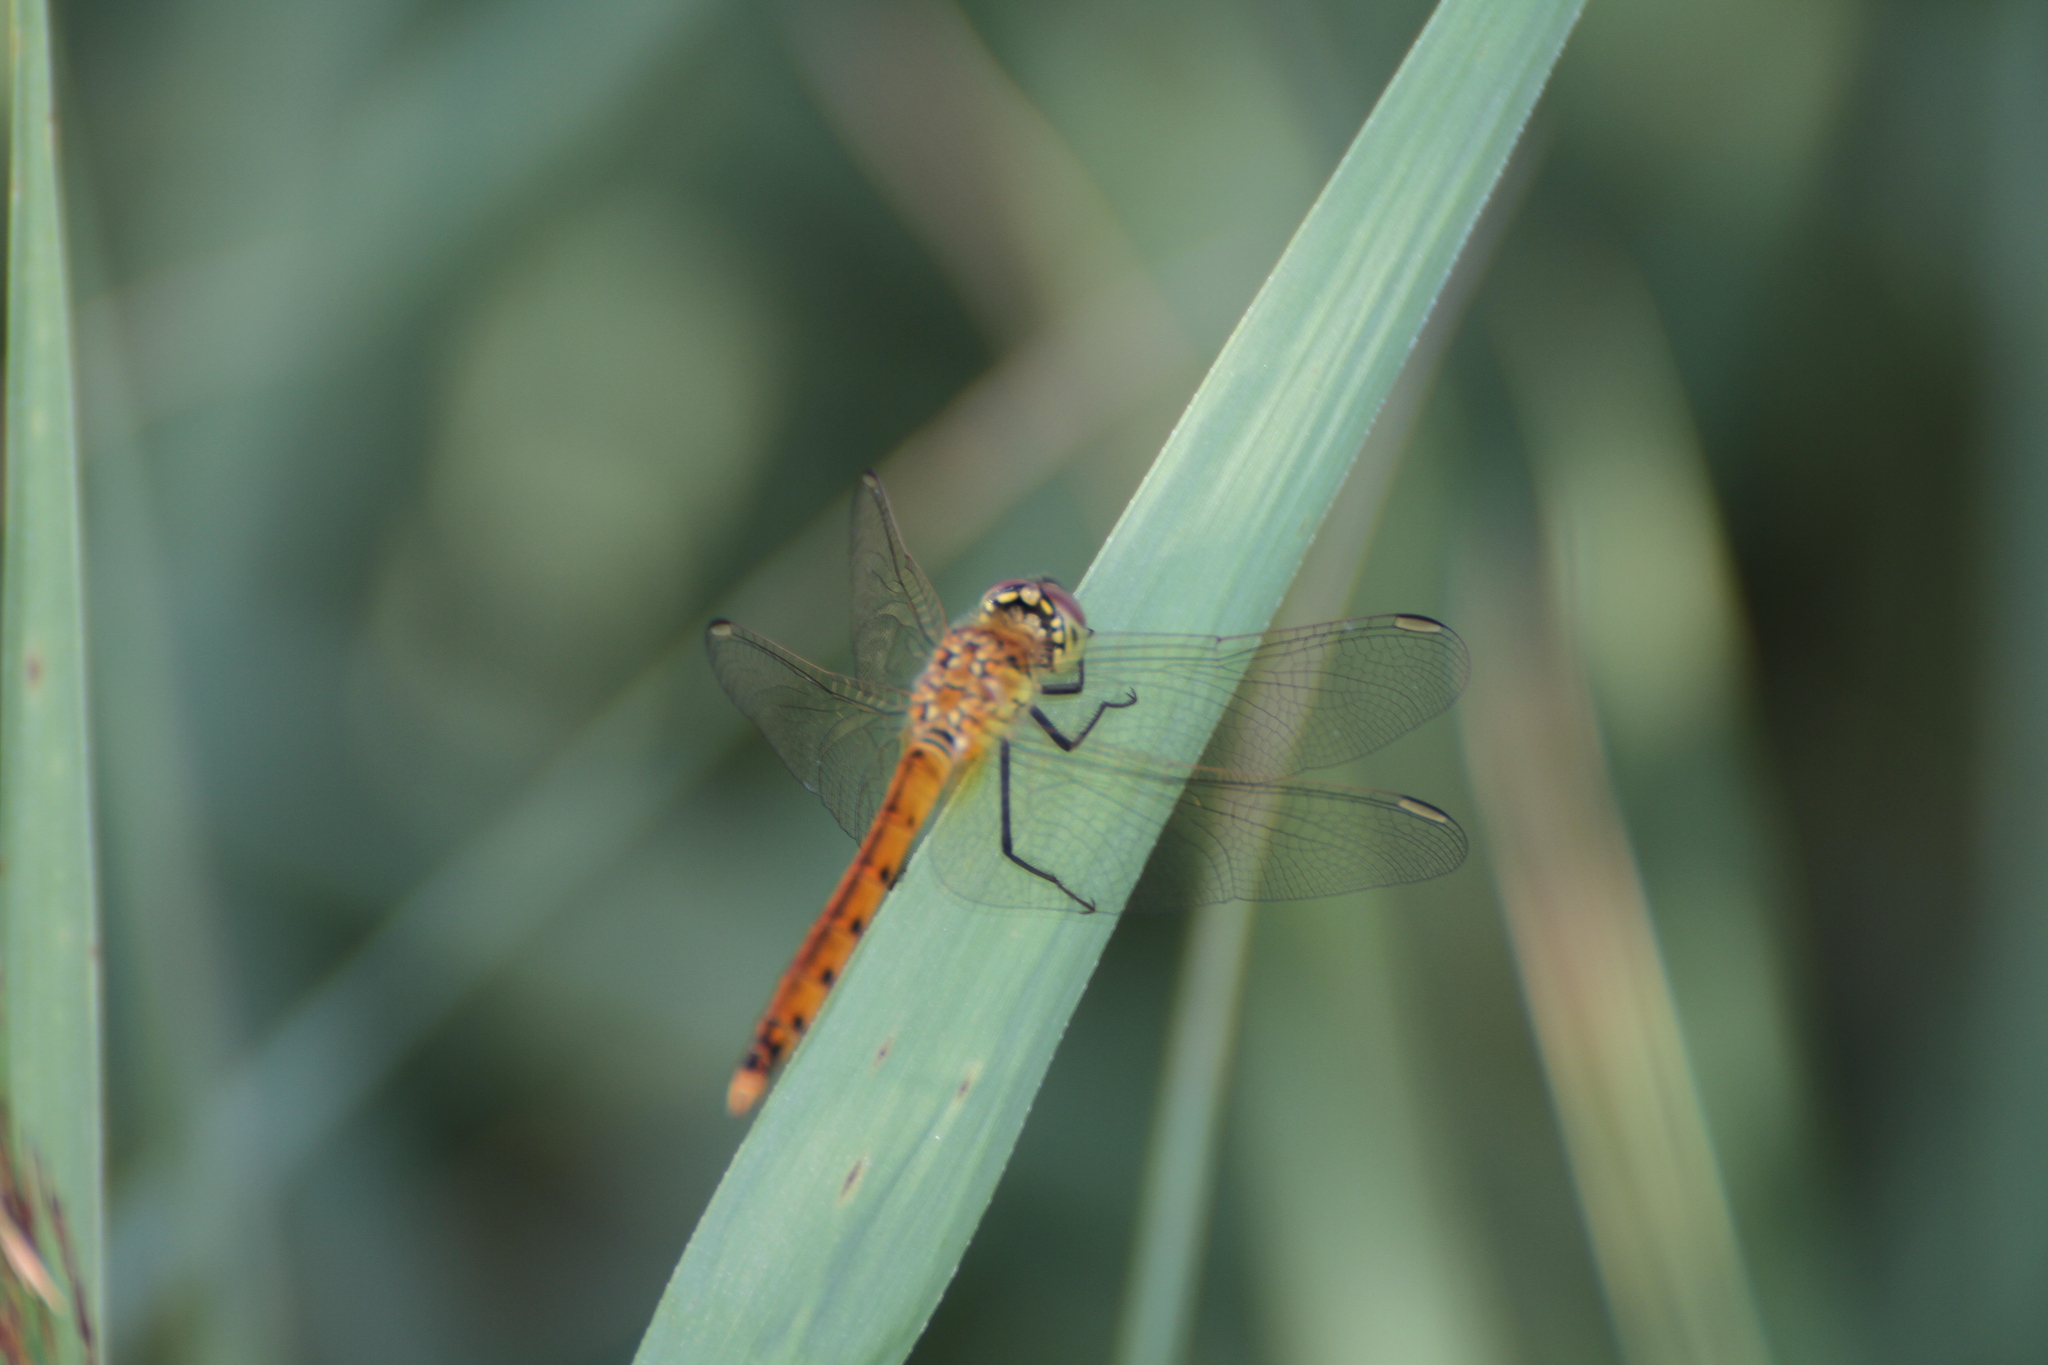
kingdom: Animalia
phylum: Arthropoda
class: Insecta
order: Odonata
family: Libellulidae
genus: Sympetrum
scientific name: Sympetrum depressiusculum
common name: Spotted darter
